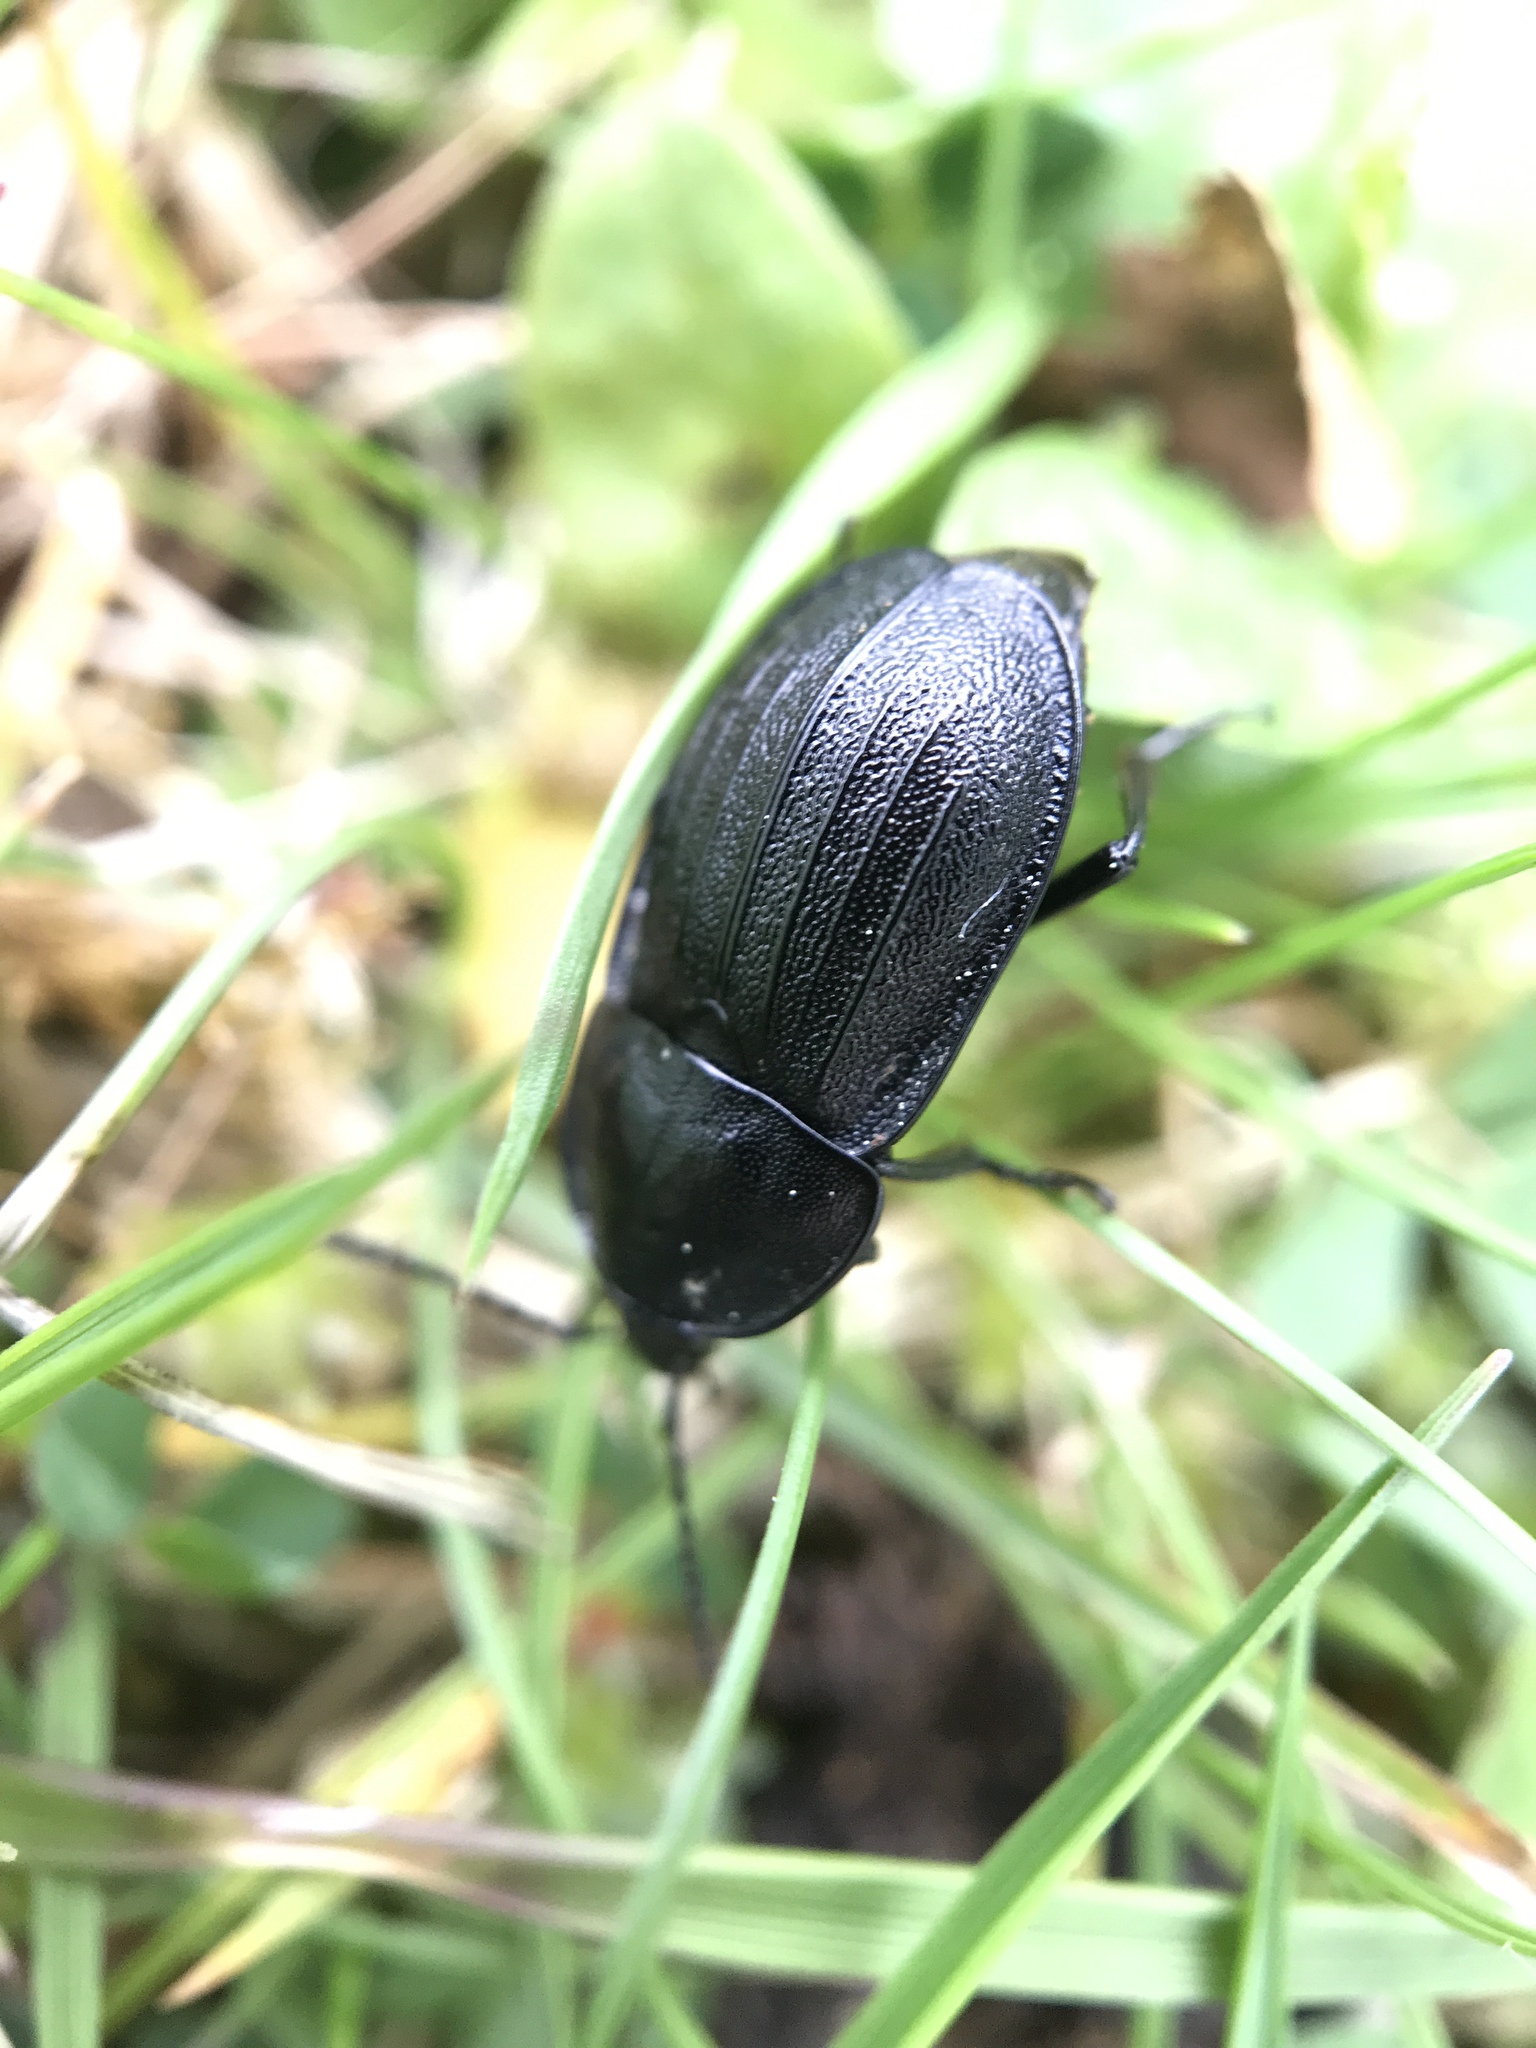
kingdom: Animalia
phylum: Arthropoda
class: Insecta
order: Coleoptera
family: Staphylinidae
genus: Silpha
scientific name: Silpha atrata
